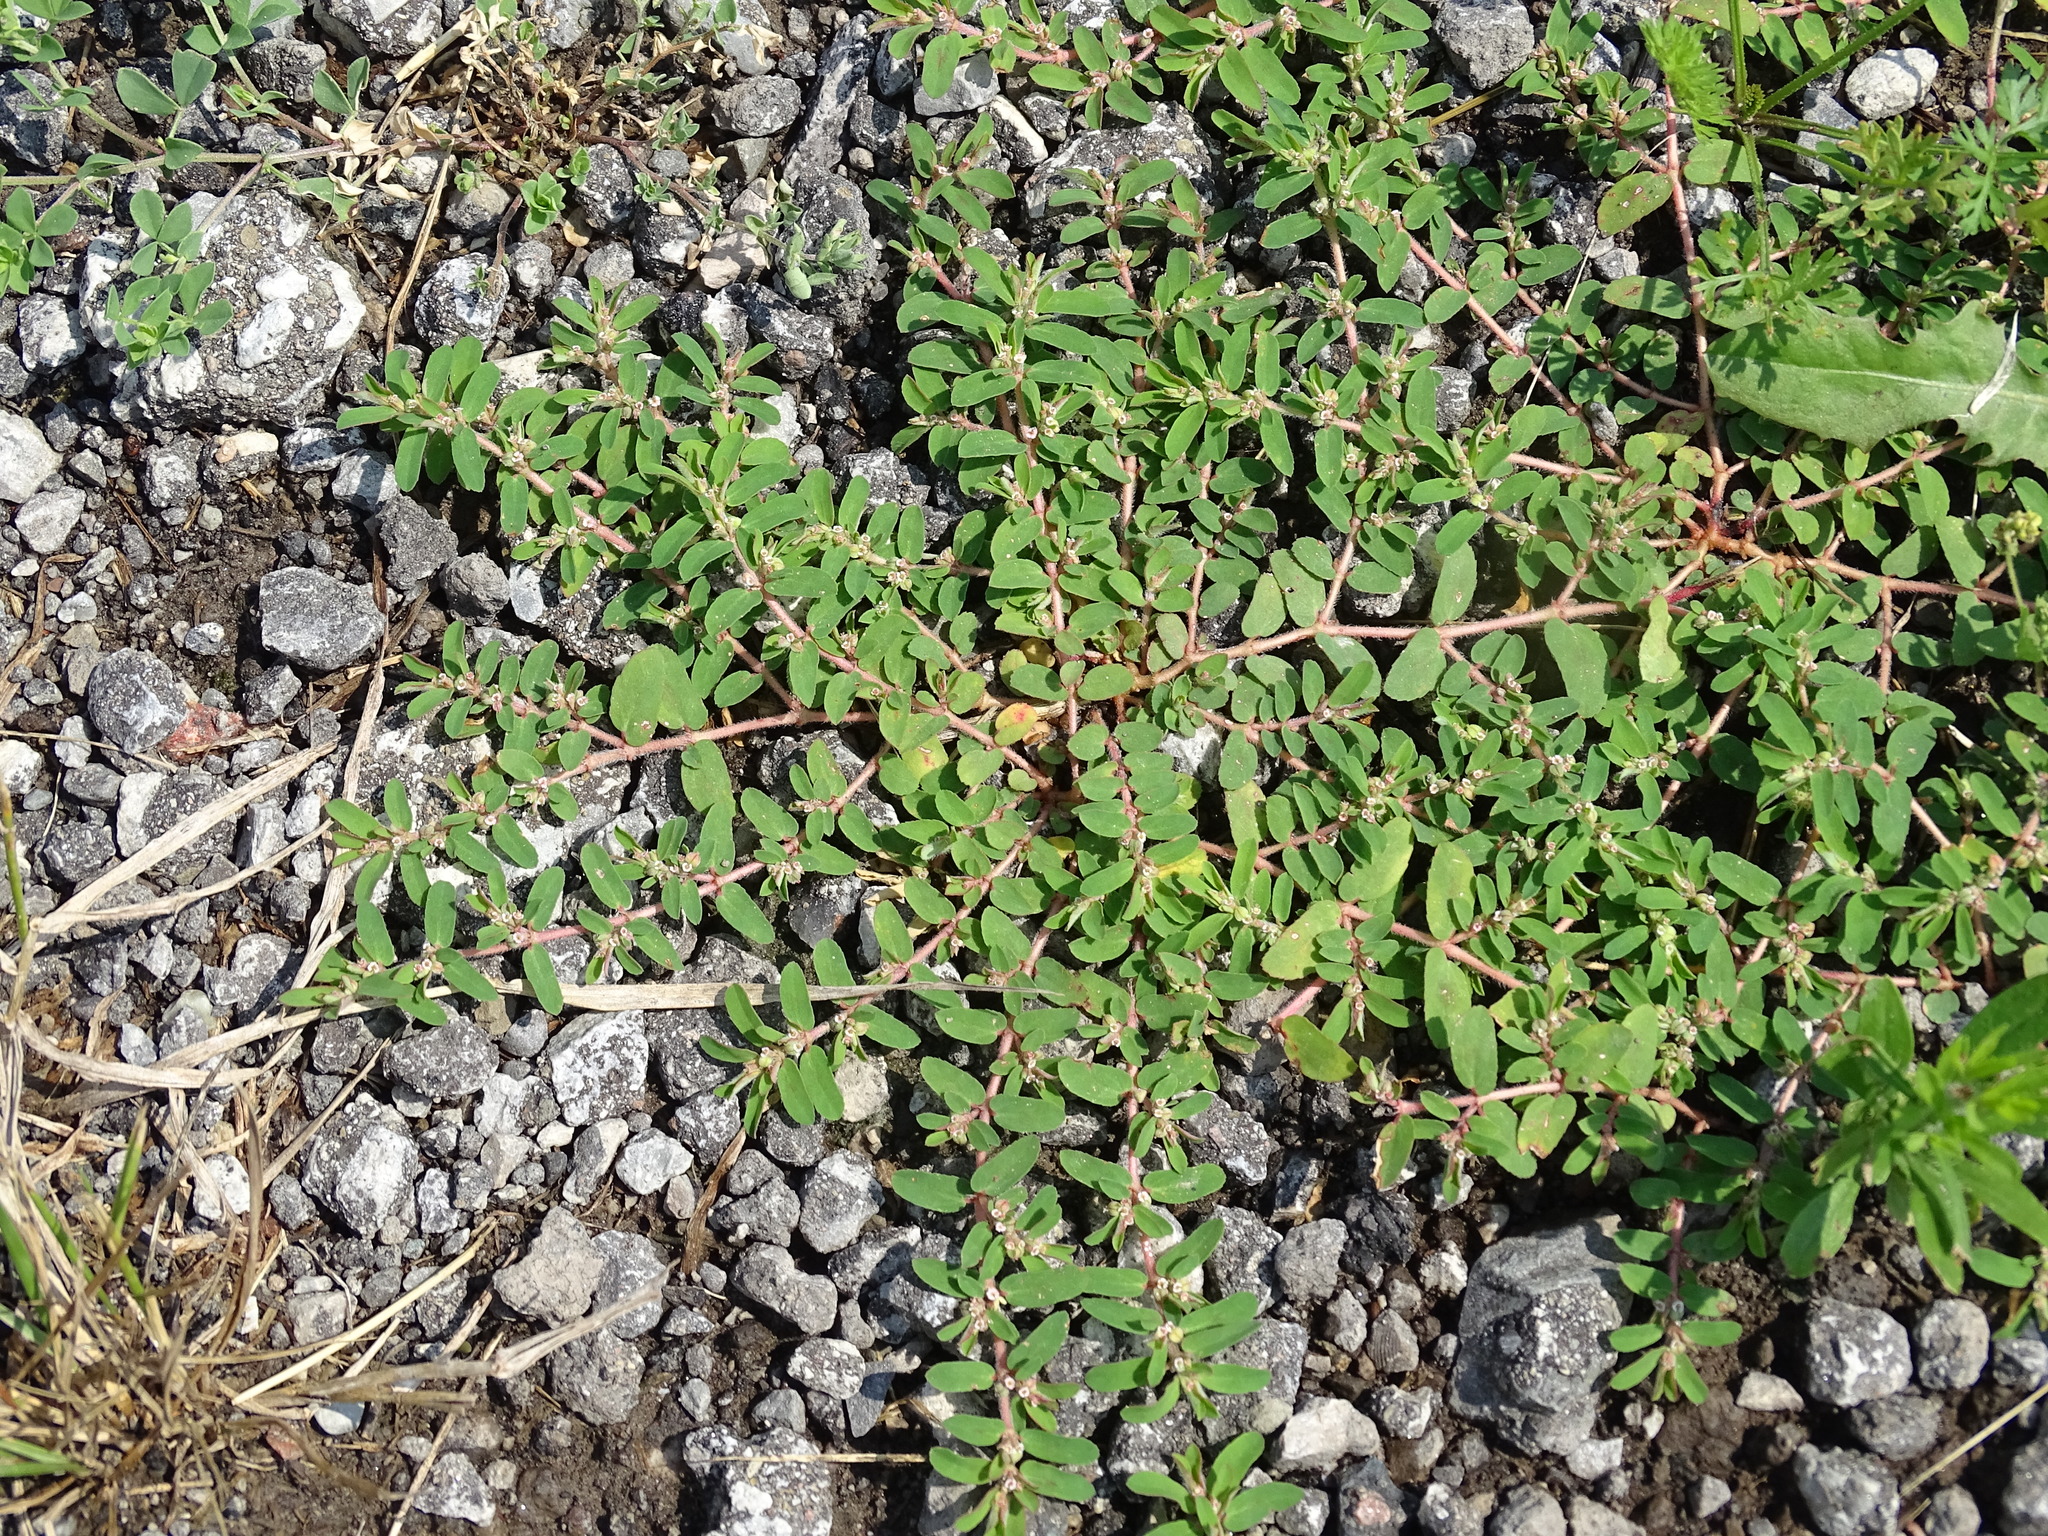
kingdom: Plantae
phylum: Tracheophyta
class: Magnoliopsida
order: Malpighiales
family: Euphorbiaceae
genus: Euphorbia
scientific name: Euphorbia maculata
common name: Spotted spurge
